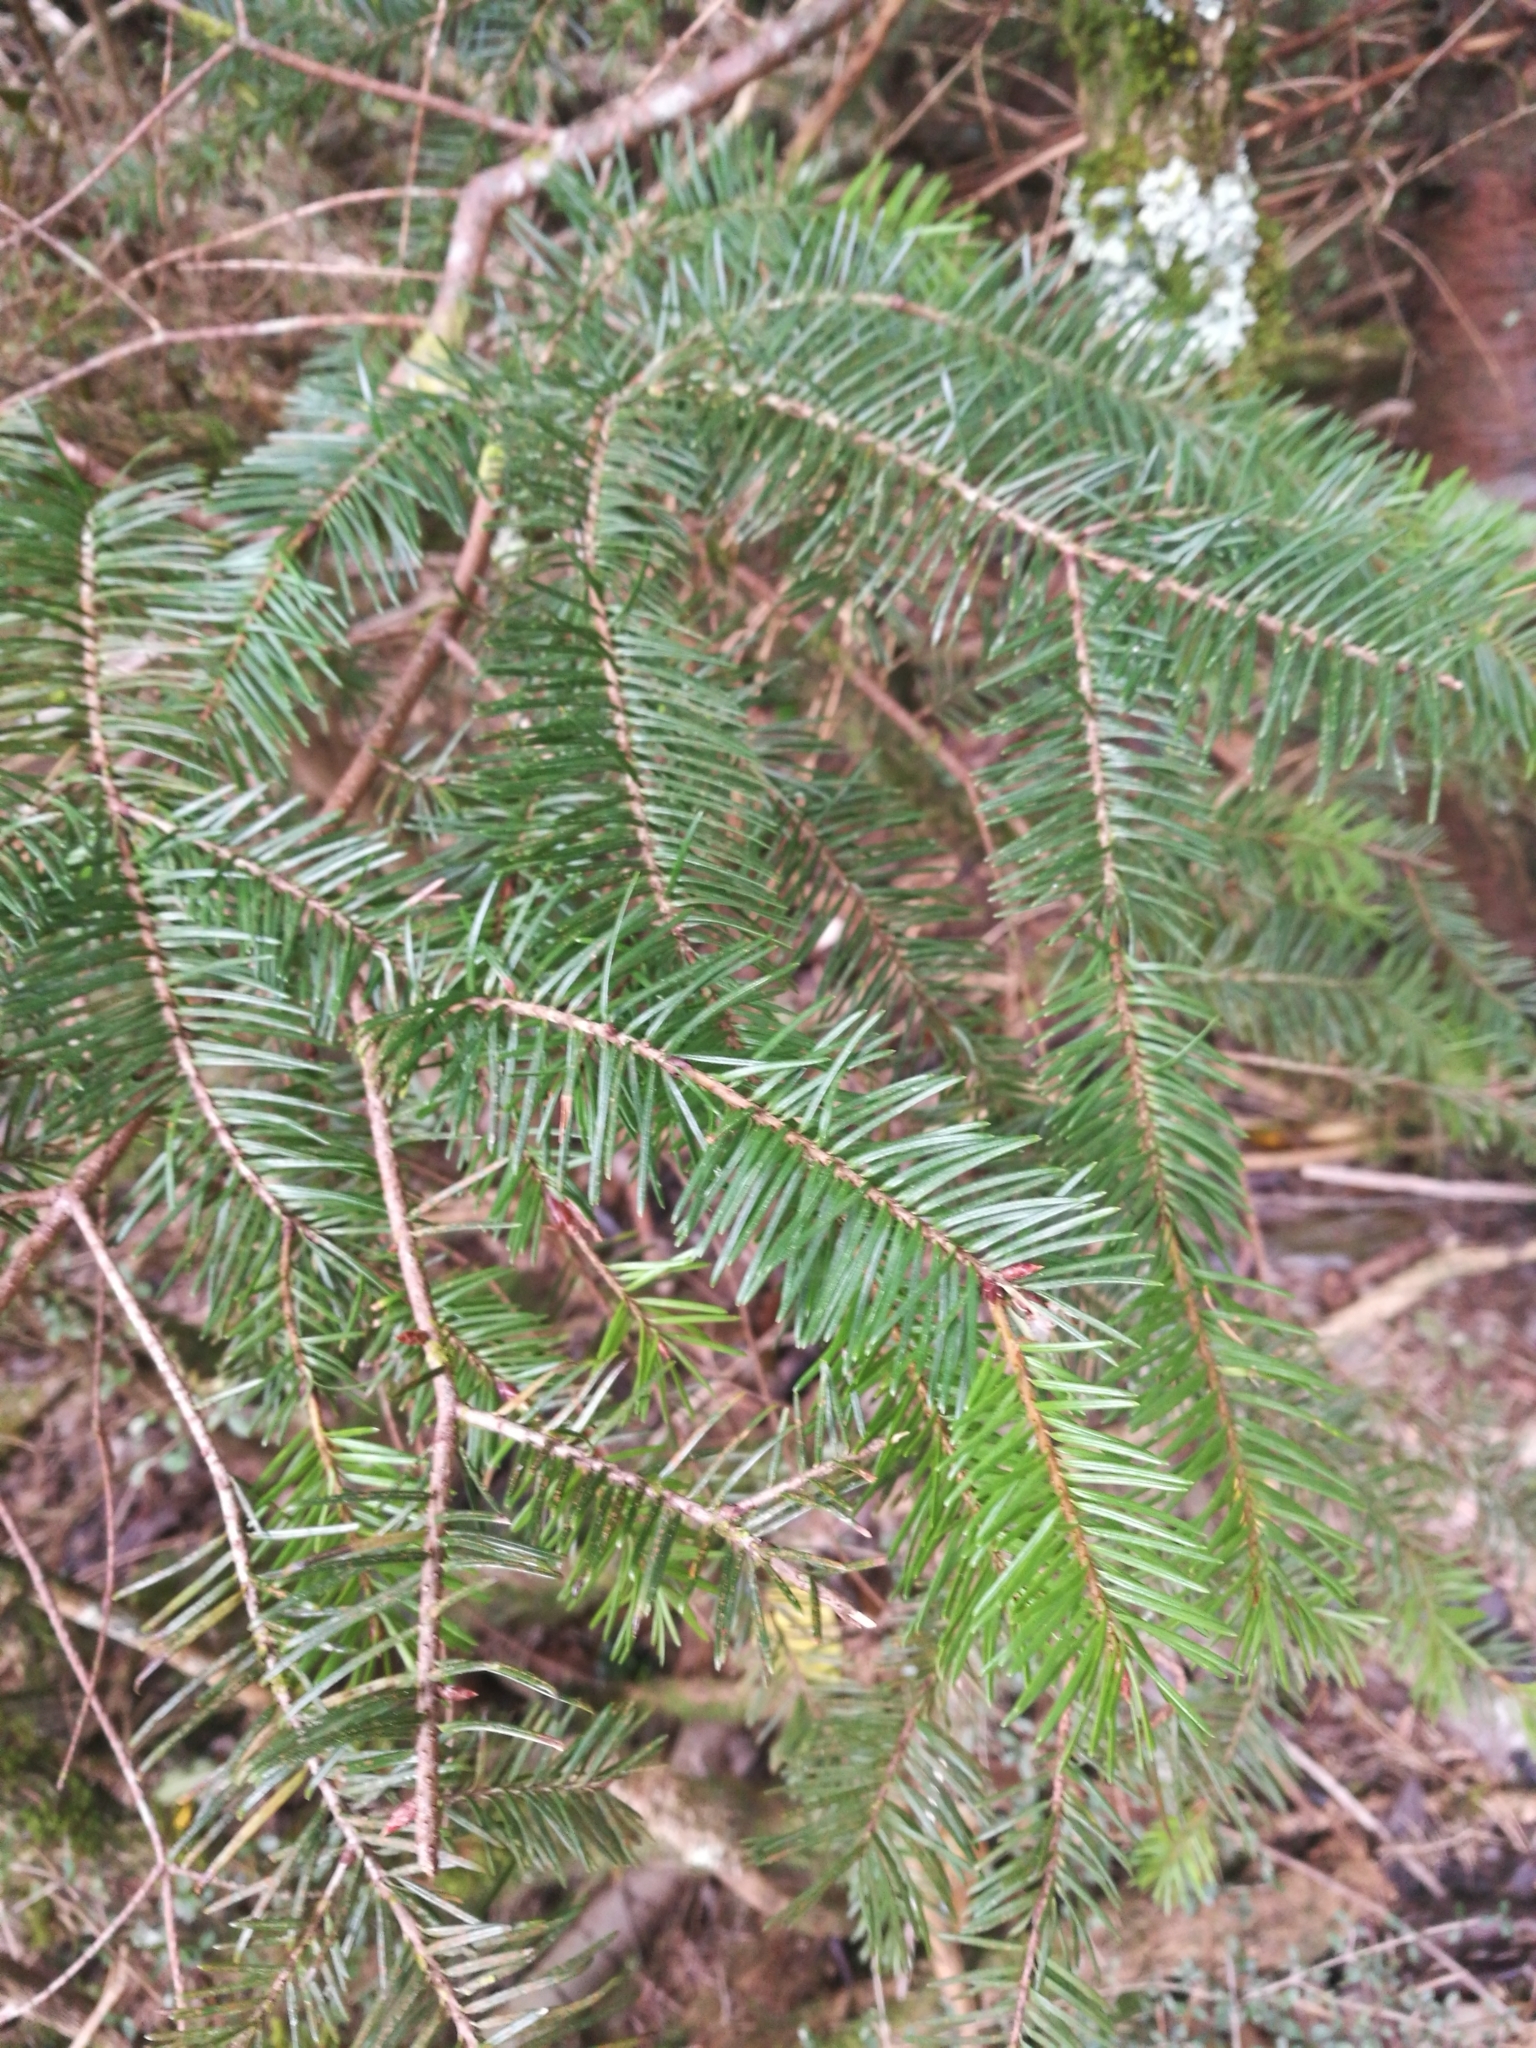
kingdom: Plantae
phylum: Tracheophyta
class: Pinopsida
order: Pinales
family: Pinaceae
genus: Pseudotsuga
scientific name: Pseudotsuga menziesii
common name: Douglas fir
